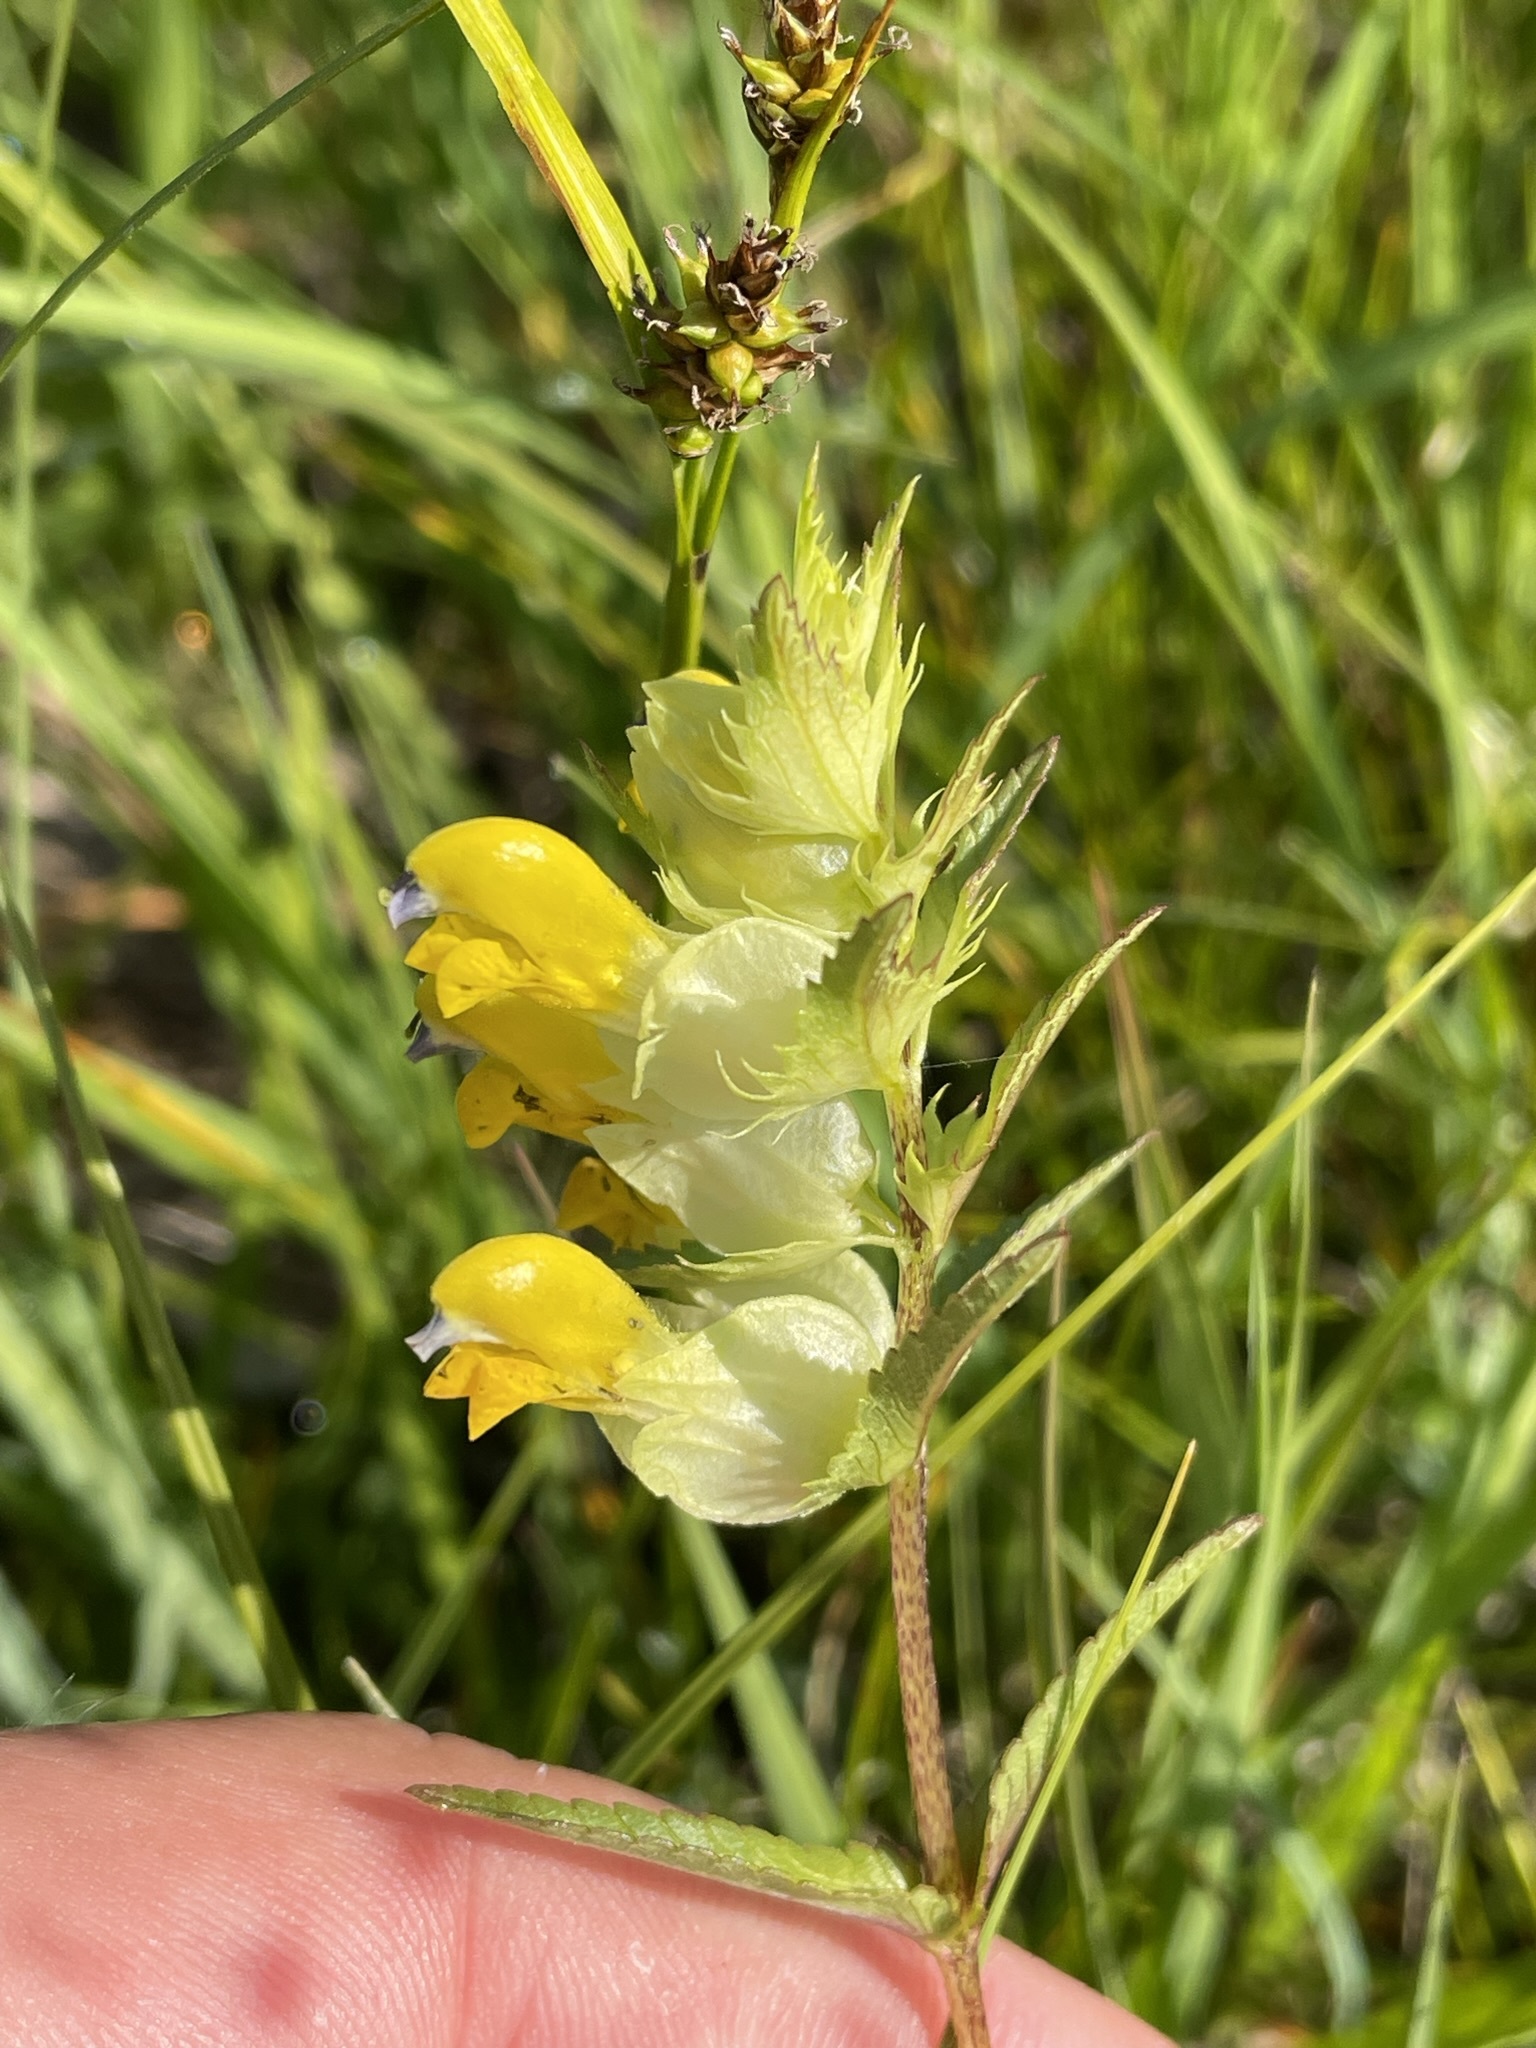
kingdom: Plantae
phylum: Tracheophyta
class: Magnoliopsida
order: Lamiales
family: Orobanchaceae
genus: Rhinanthus
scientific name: Rhinanthus glacialis
